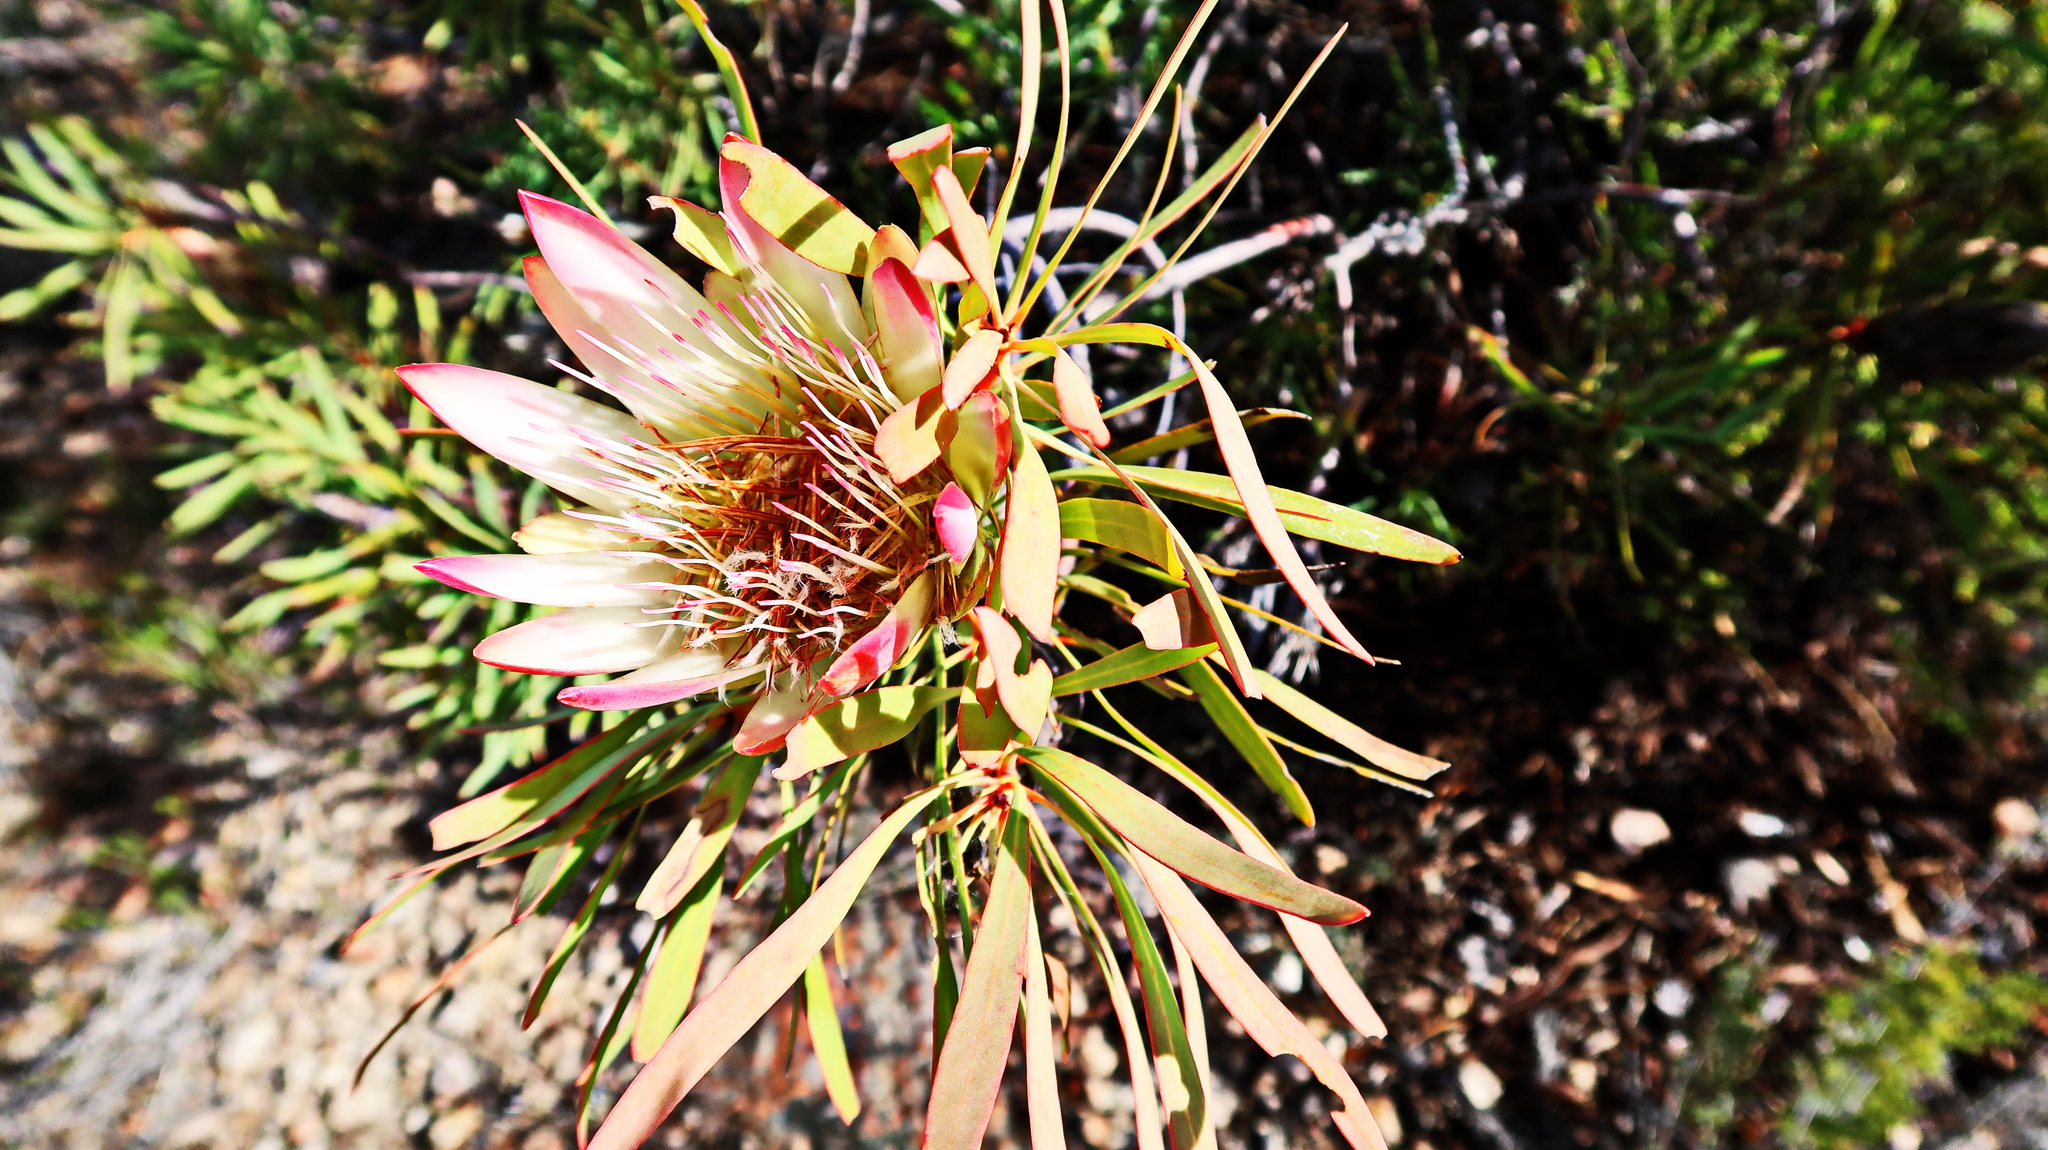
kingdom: Plantae
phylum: Tracheophyta
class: Magnoliopsida
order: Proteales
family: Proteaceae
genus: Protea
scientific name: Protea repens
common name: Sugarbush
